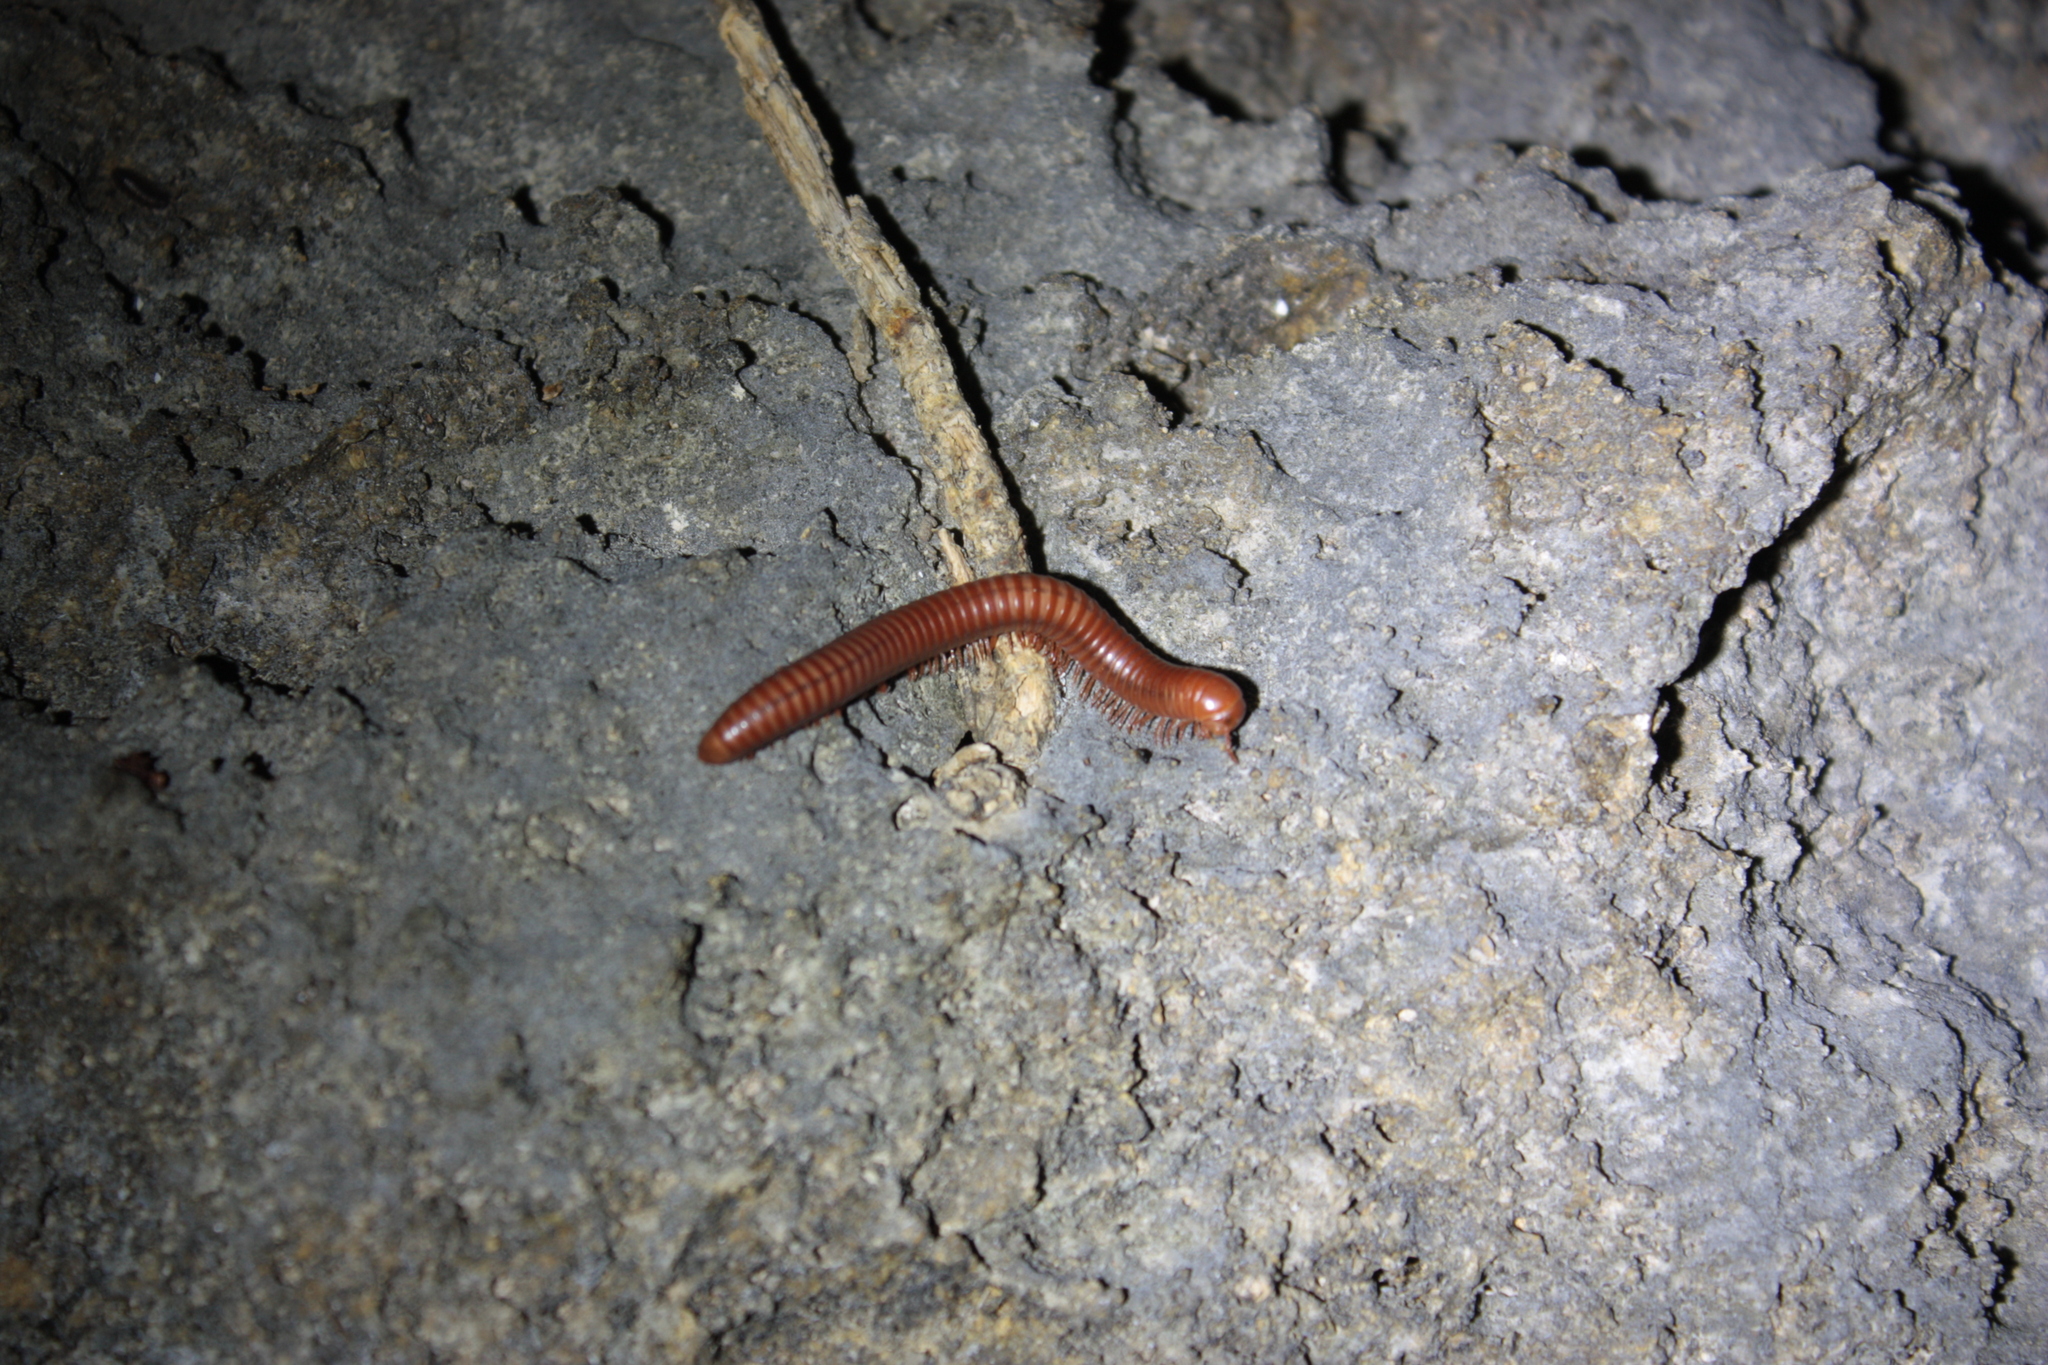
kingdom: Animalia
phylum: Arthropoda
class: Diplopoda
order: Spirobolida
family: Pachybolidae
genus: Trigoniulus
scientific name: Trigoniulus corallinus
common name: Millipede
